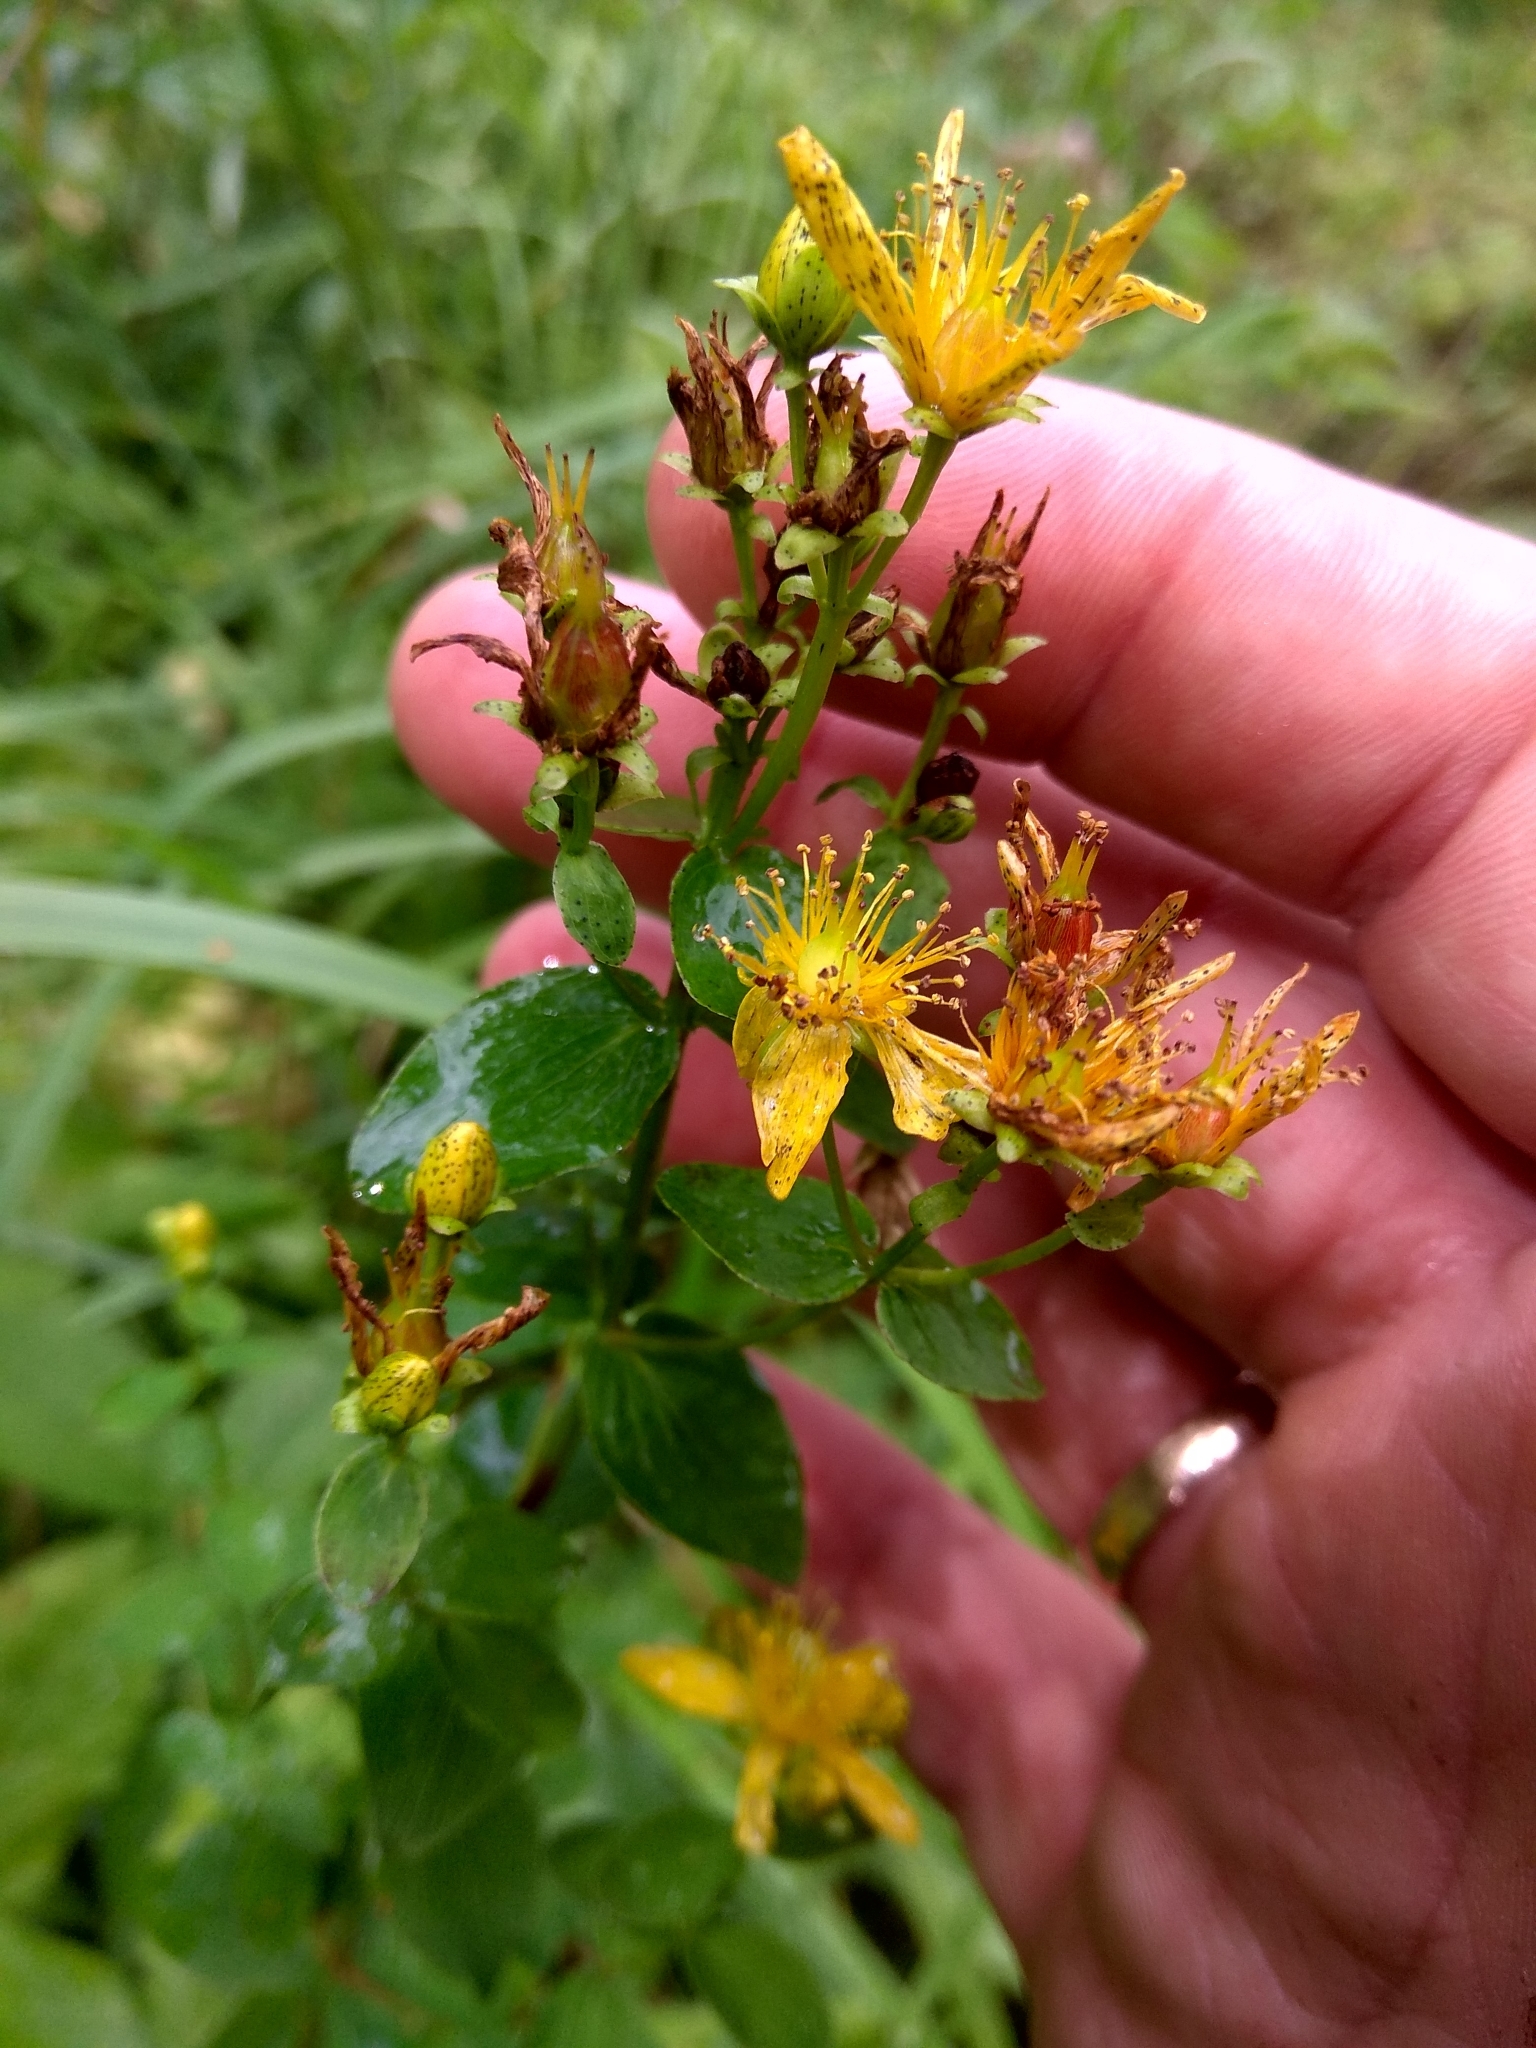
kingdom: Plantae
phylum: Tracheophyta
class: Magnoliopsida
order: Malpighiales
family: Hypericaceae
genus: Hypericum
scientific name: Hypericum maculatum
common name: Imperforate st. john's-wort
